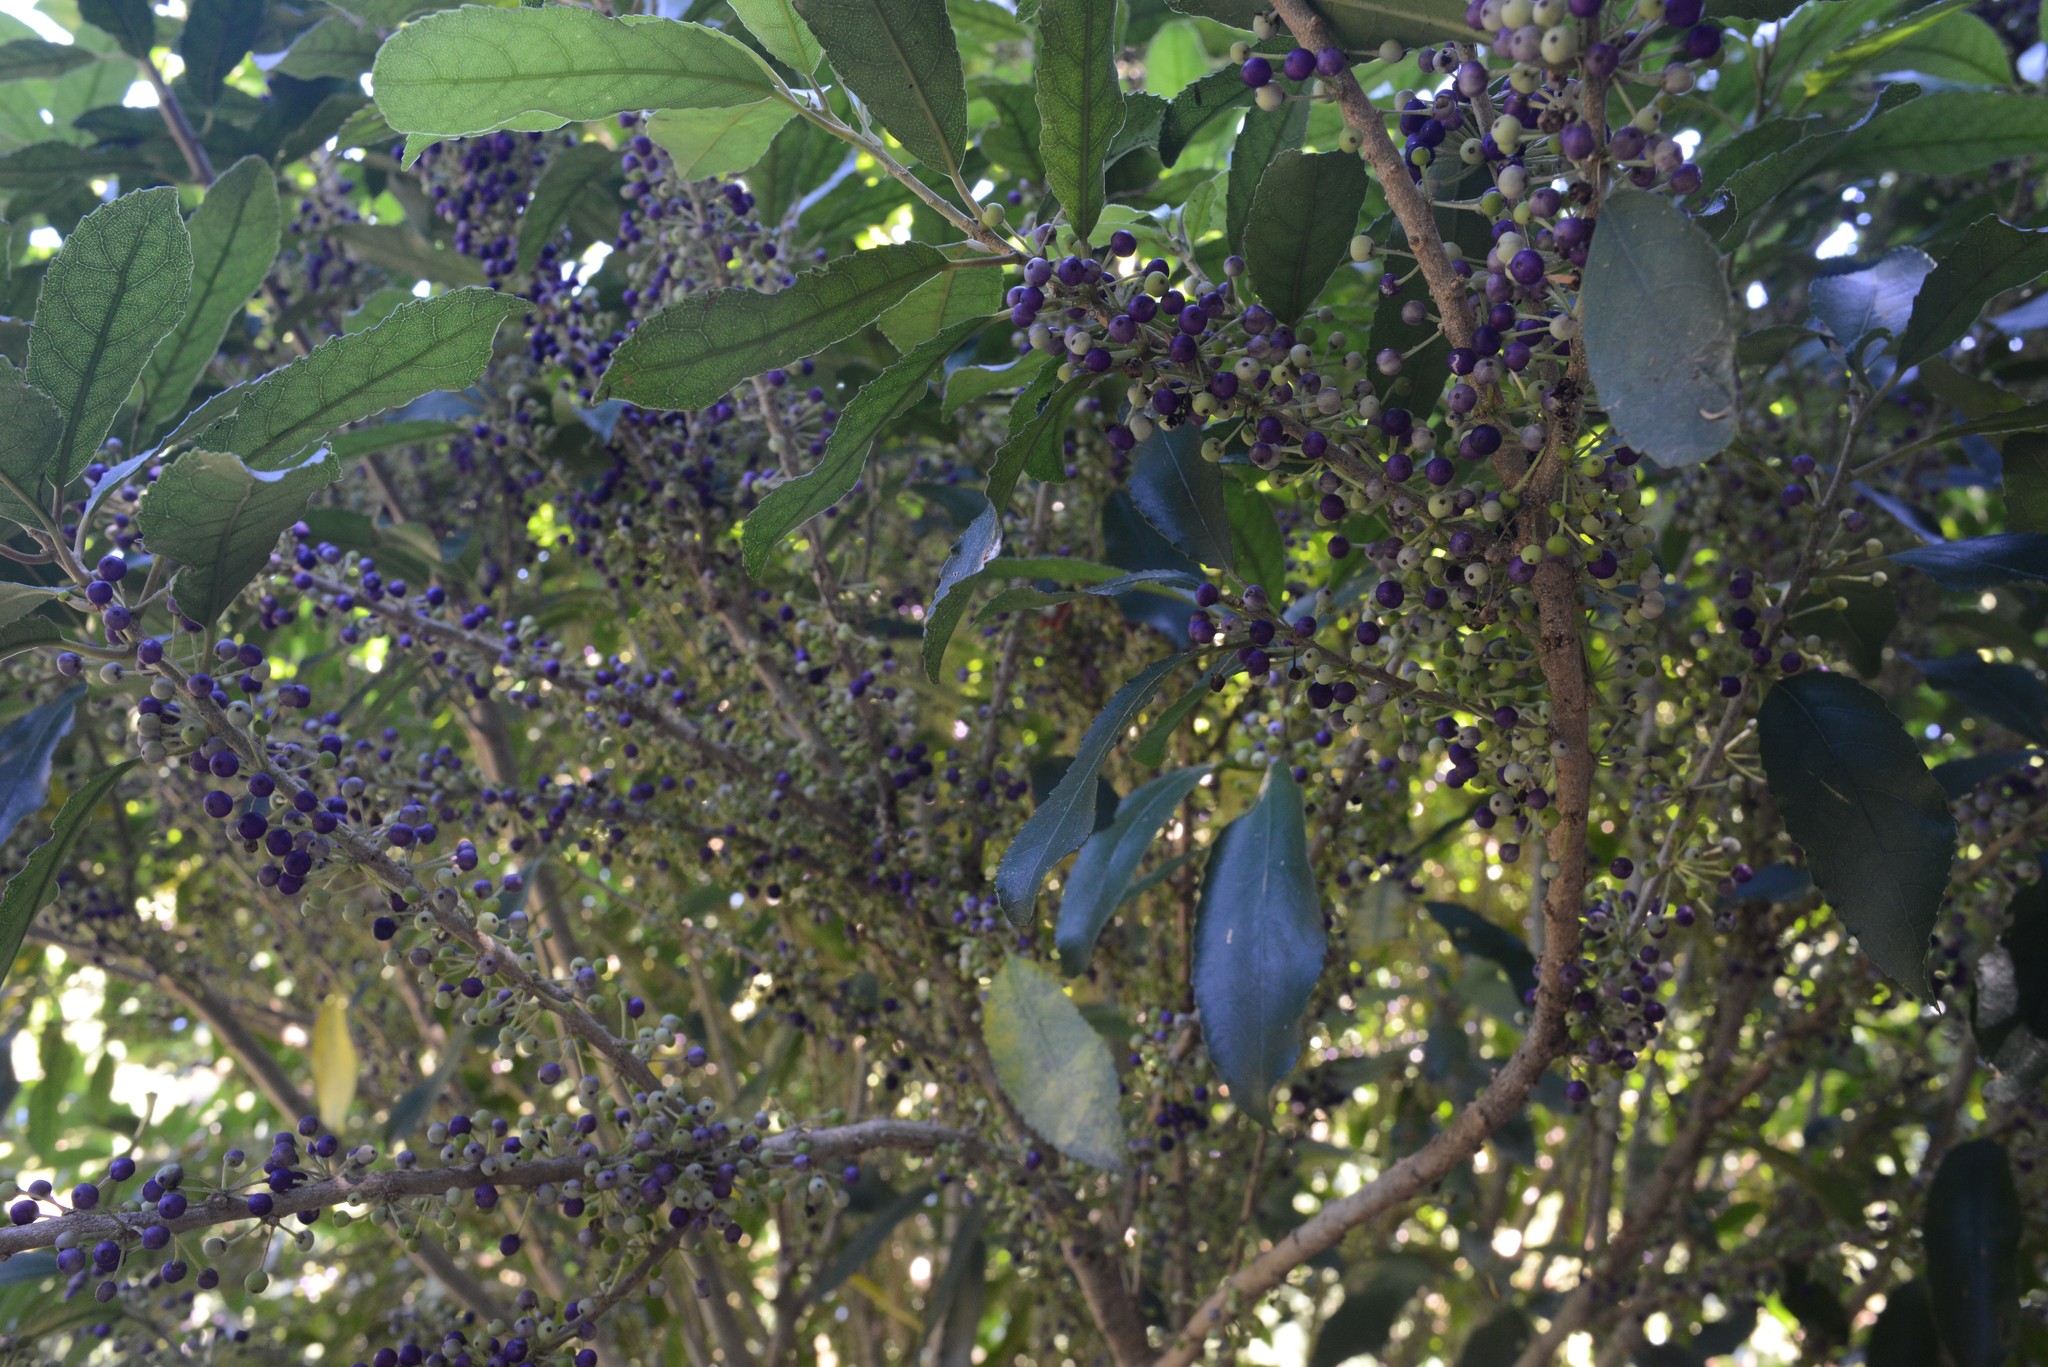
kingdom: Plantae
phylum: Tracheophyta
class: Magnoliopsida
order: Malpighiales
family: Violaceae
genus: Melicytus
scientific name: Melicytus ramiflorus
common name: Mahoe
